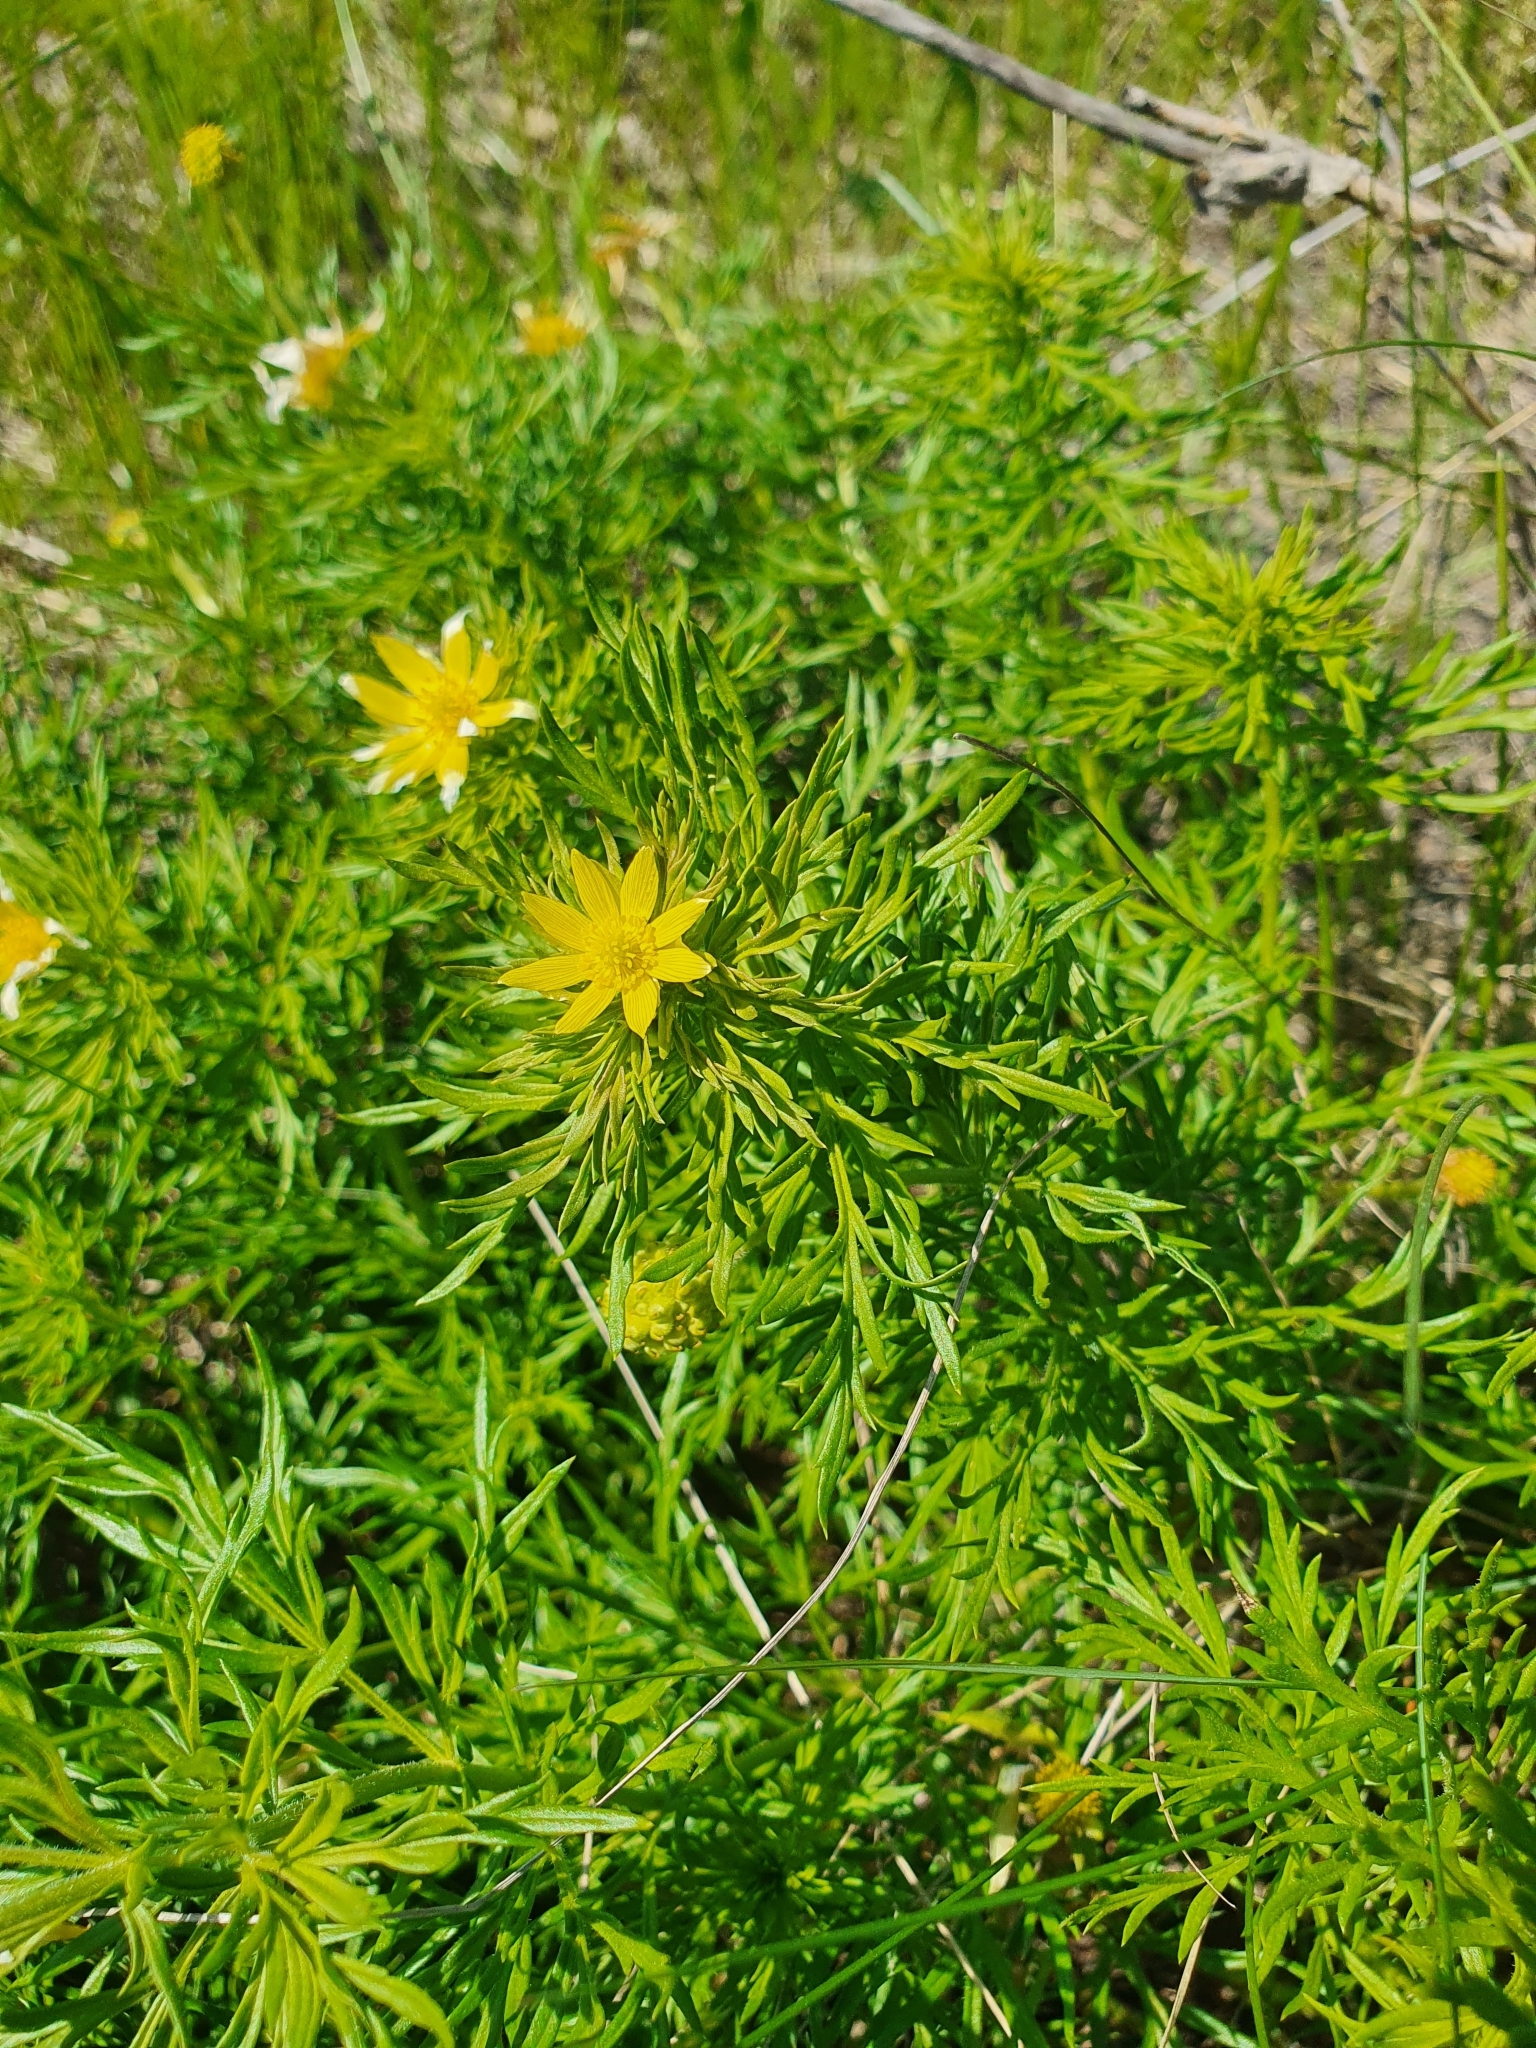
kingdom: Plantae
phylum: Tracheophyta
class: Magnoliopsida
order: Ranunculales
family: Ranunculaceae
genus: Adonis
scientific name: Adonis volgensis
